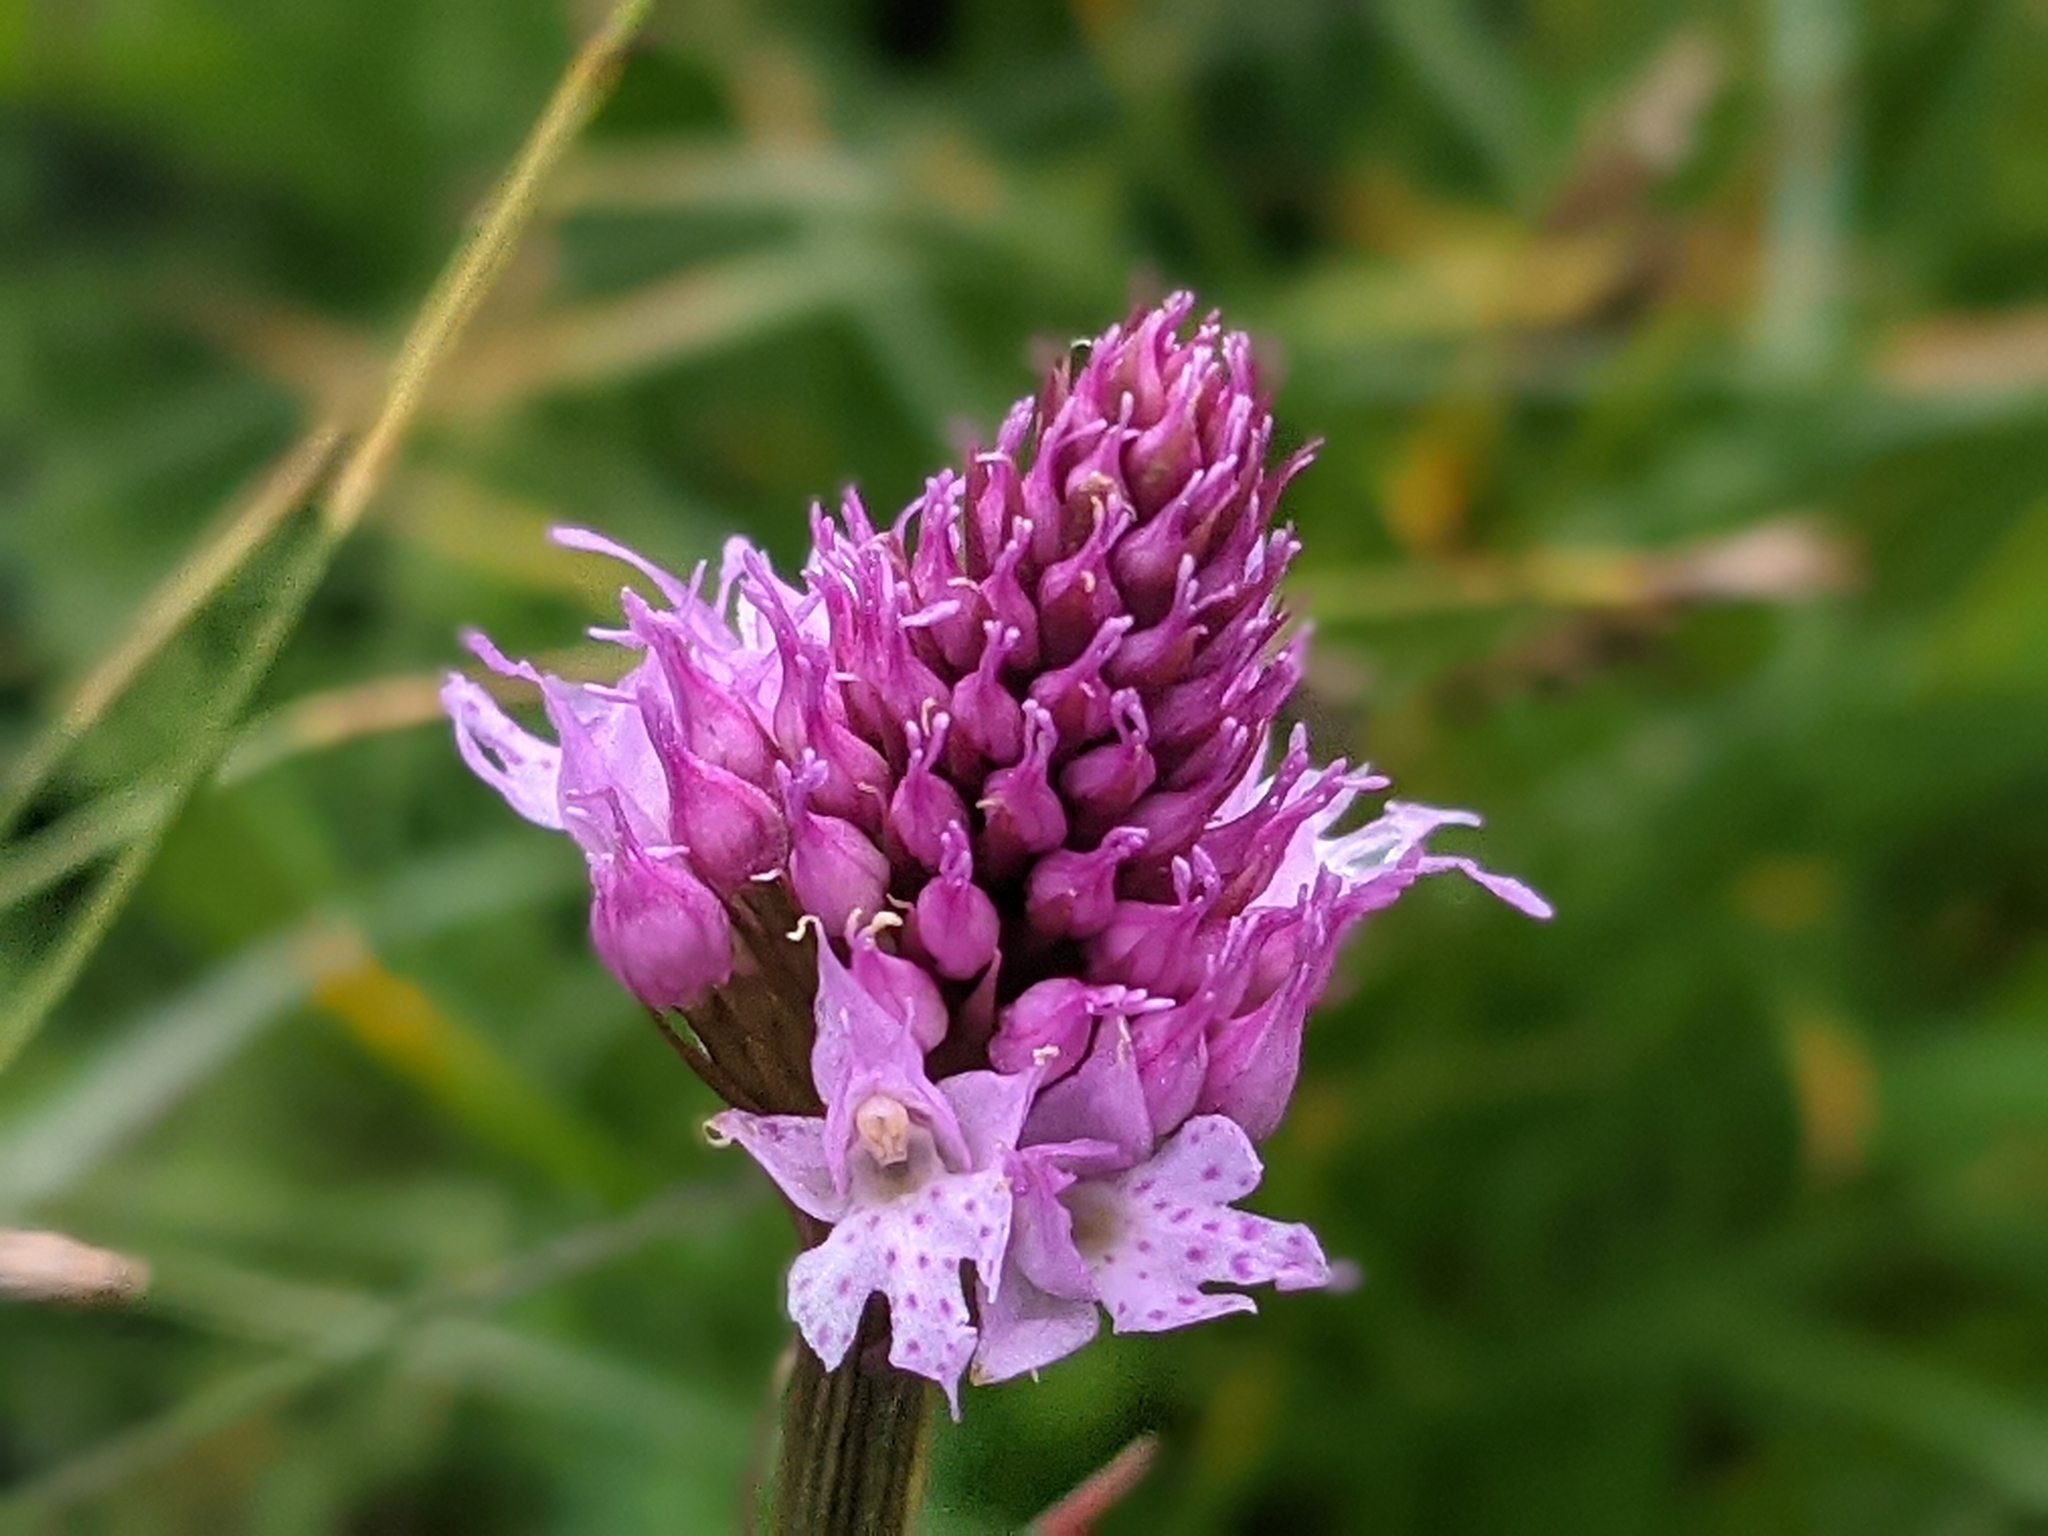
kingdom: Plantae
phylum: Tracheophyta
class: Liliopsida
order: Asparagales
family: Orchidaceae
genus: Traunsteinera
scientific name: Traunsteinera globosa
